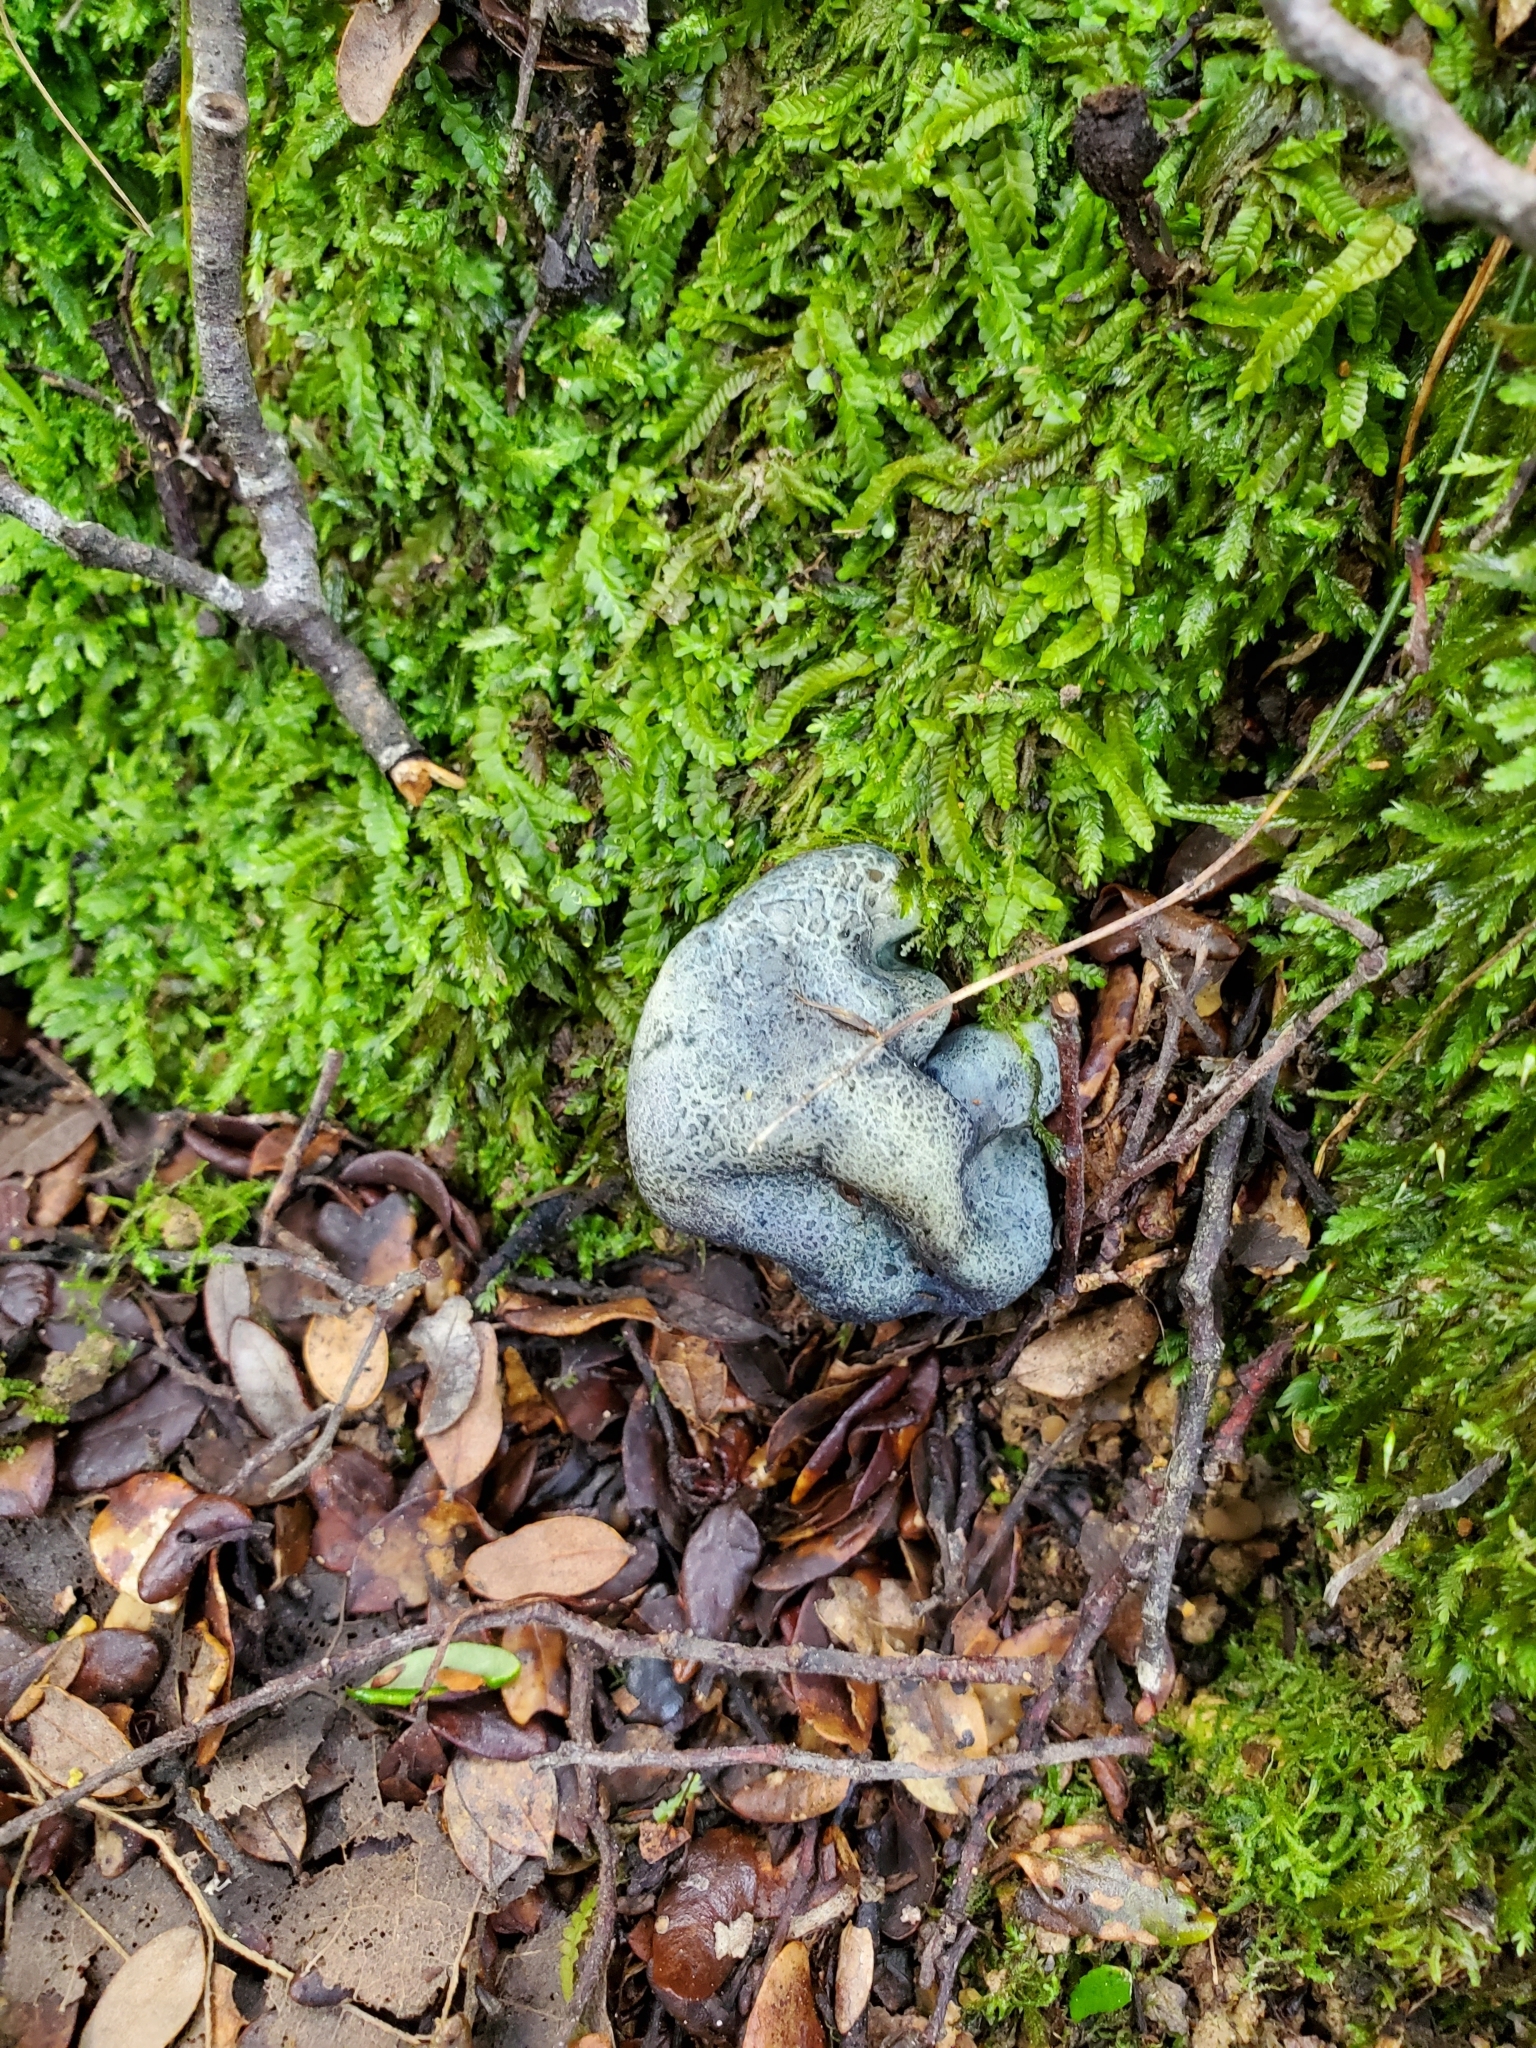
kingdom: Fungi
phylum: Basidiomycota
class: Agaricomycetes
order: Boletales
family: Boletaceae
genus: Leccinum
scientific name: Leccinum pachyderme
